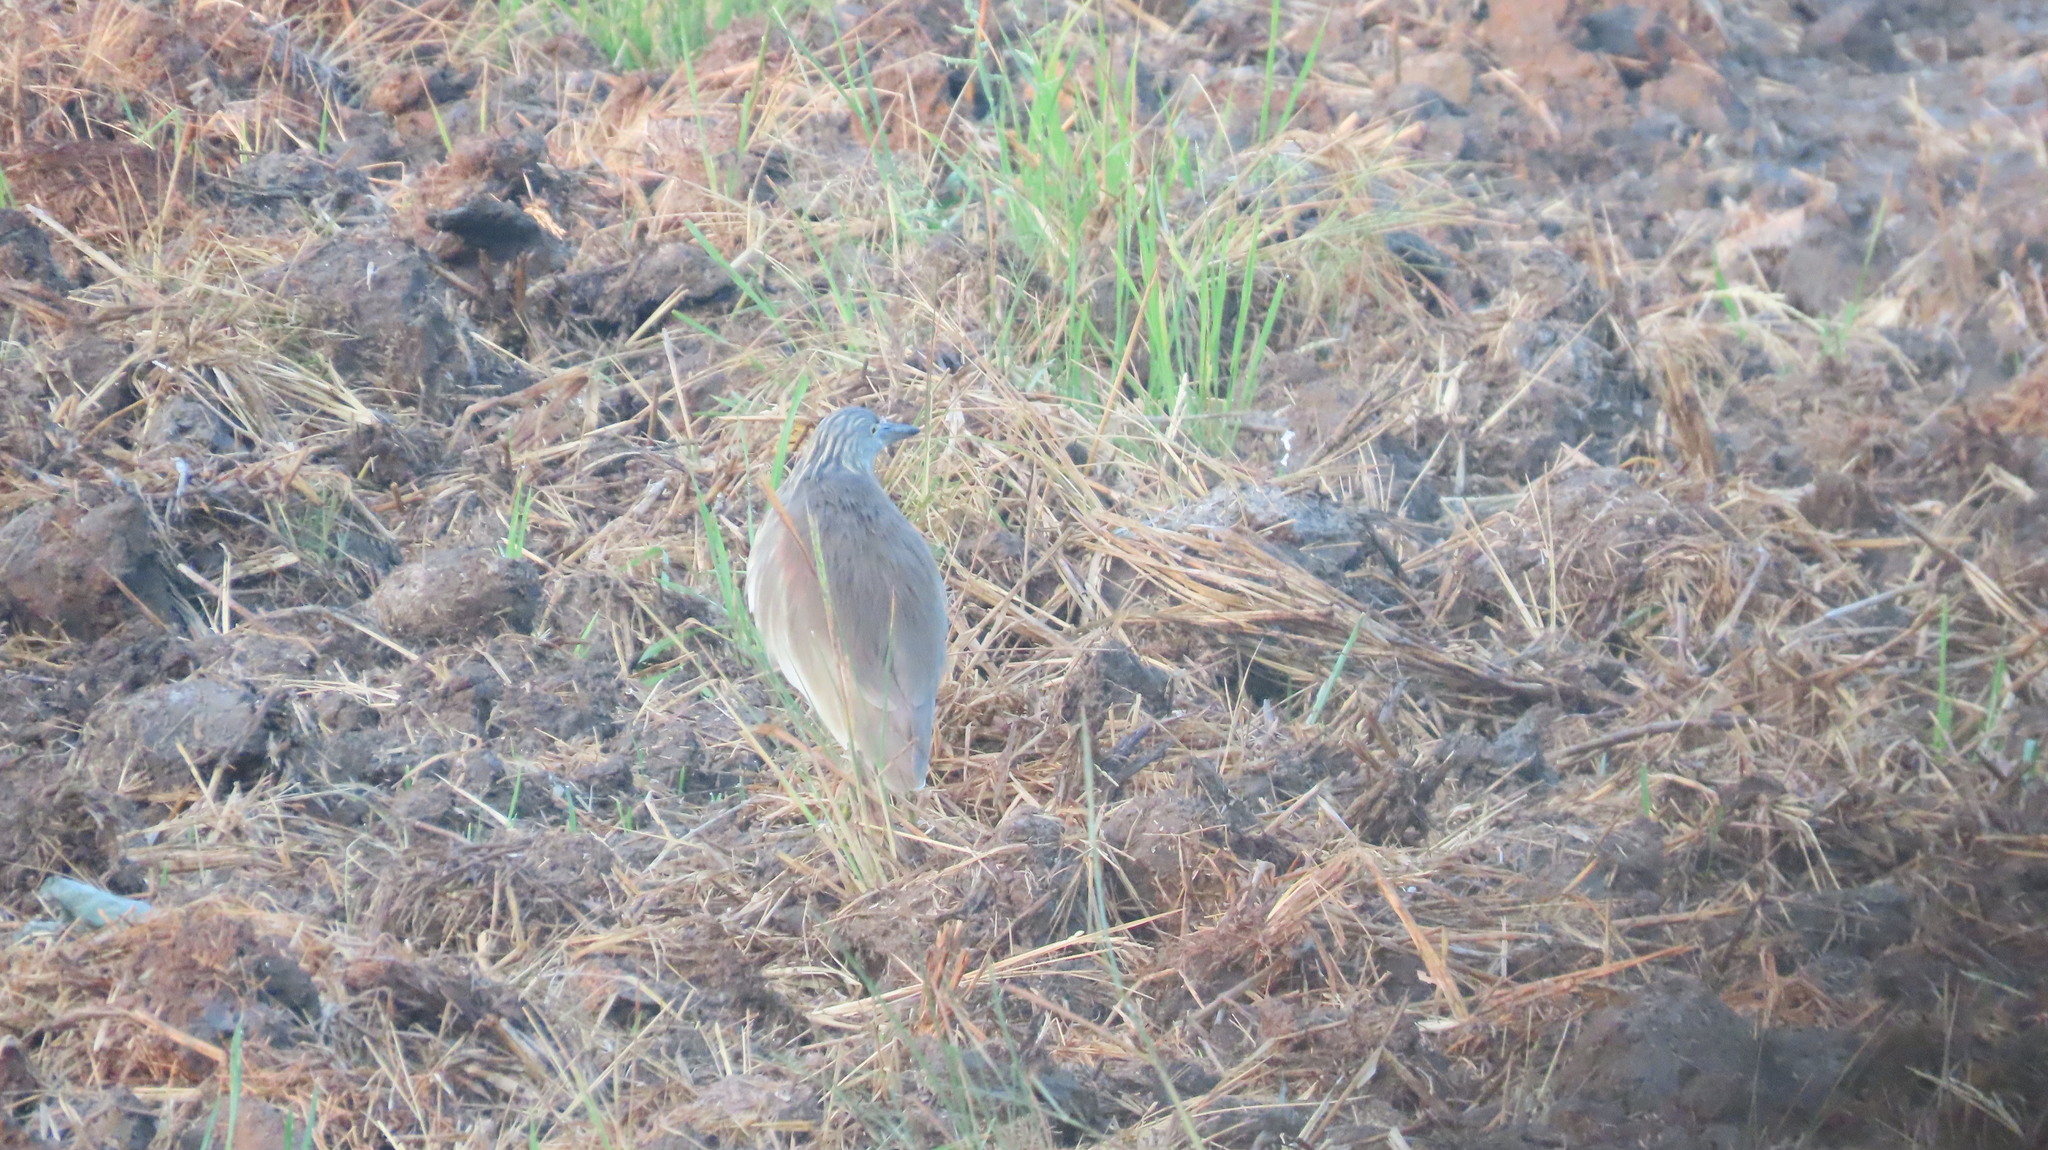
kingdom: Animalia
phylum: Chordata
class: Aves
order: Pelecaniformes
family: Ardeidae
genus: Ardeola
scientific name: Ardeola grayii
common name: Indian pond heron
